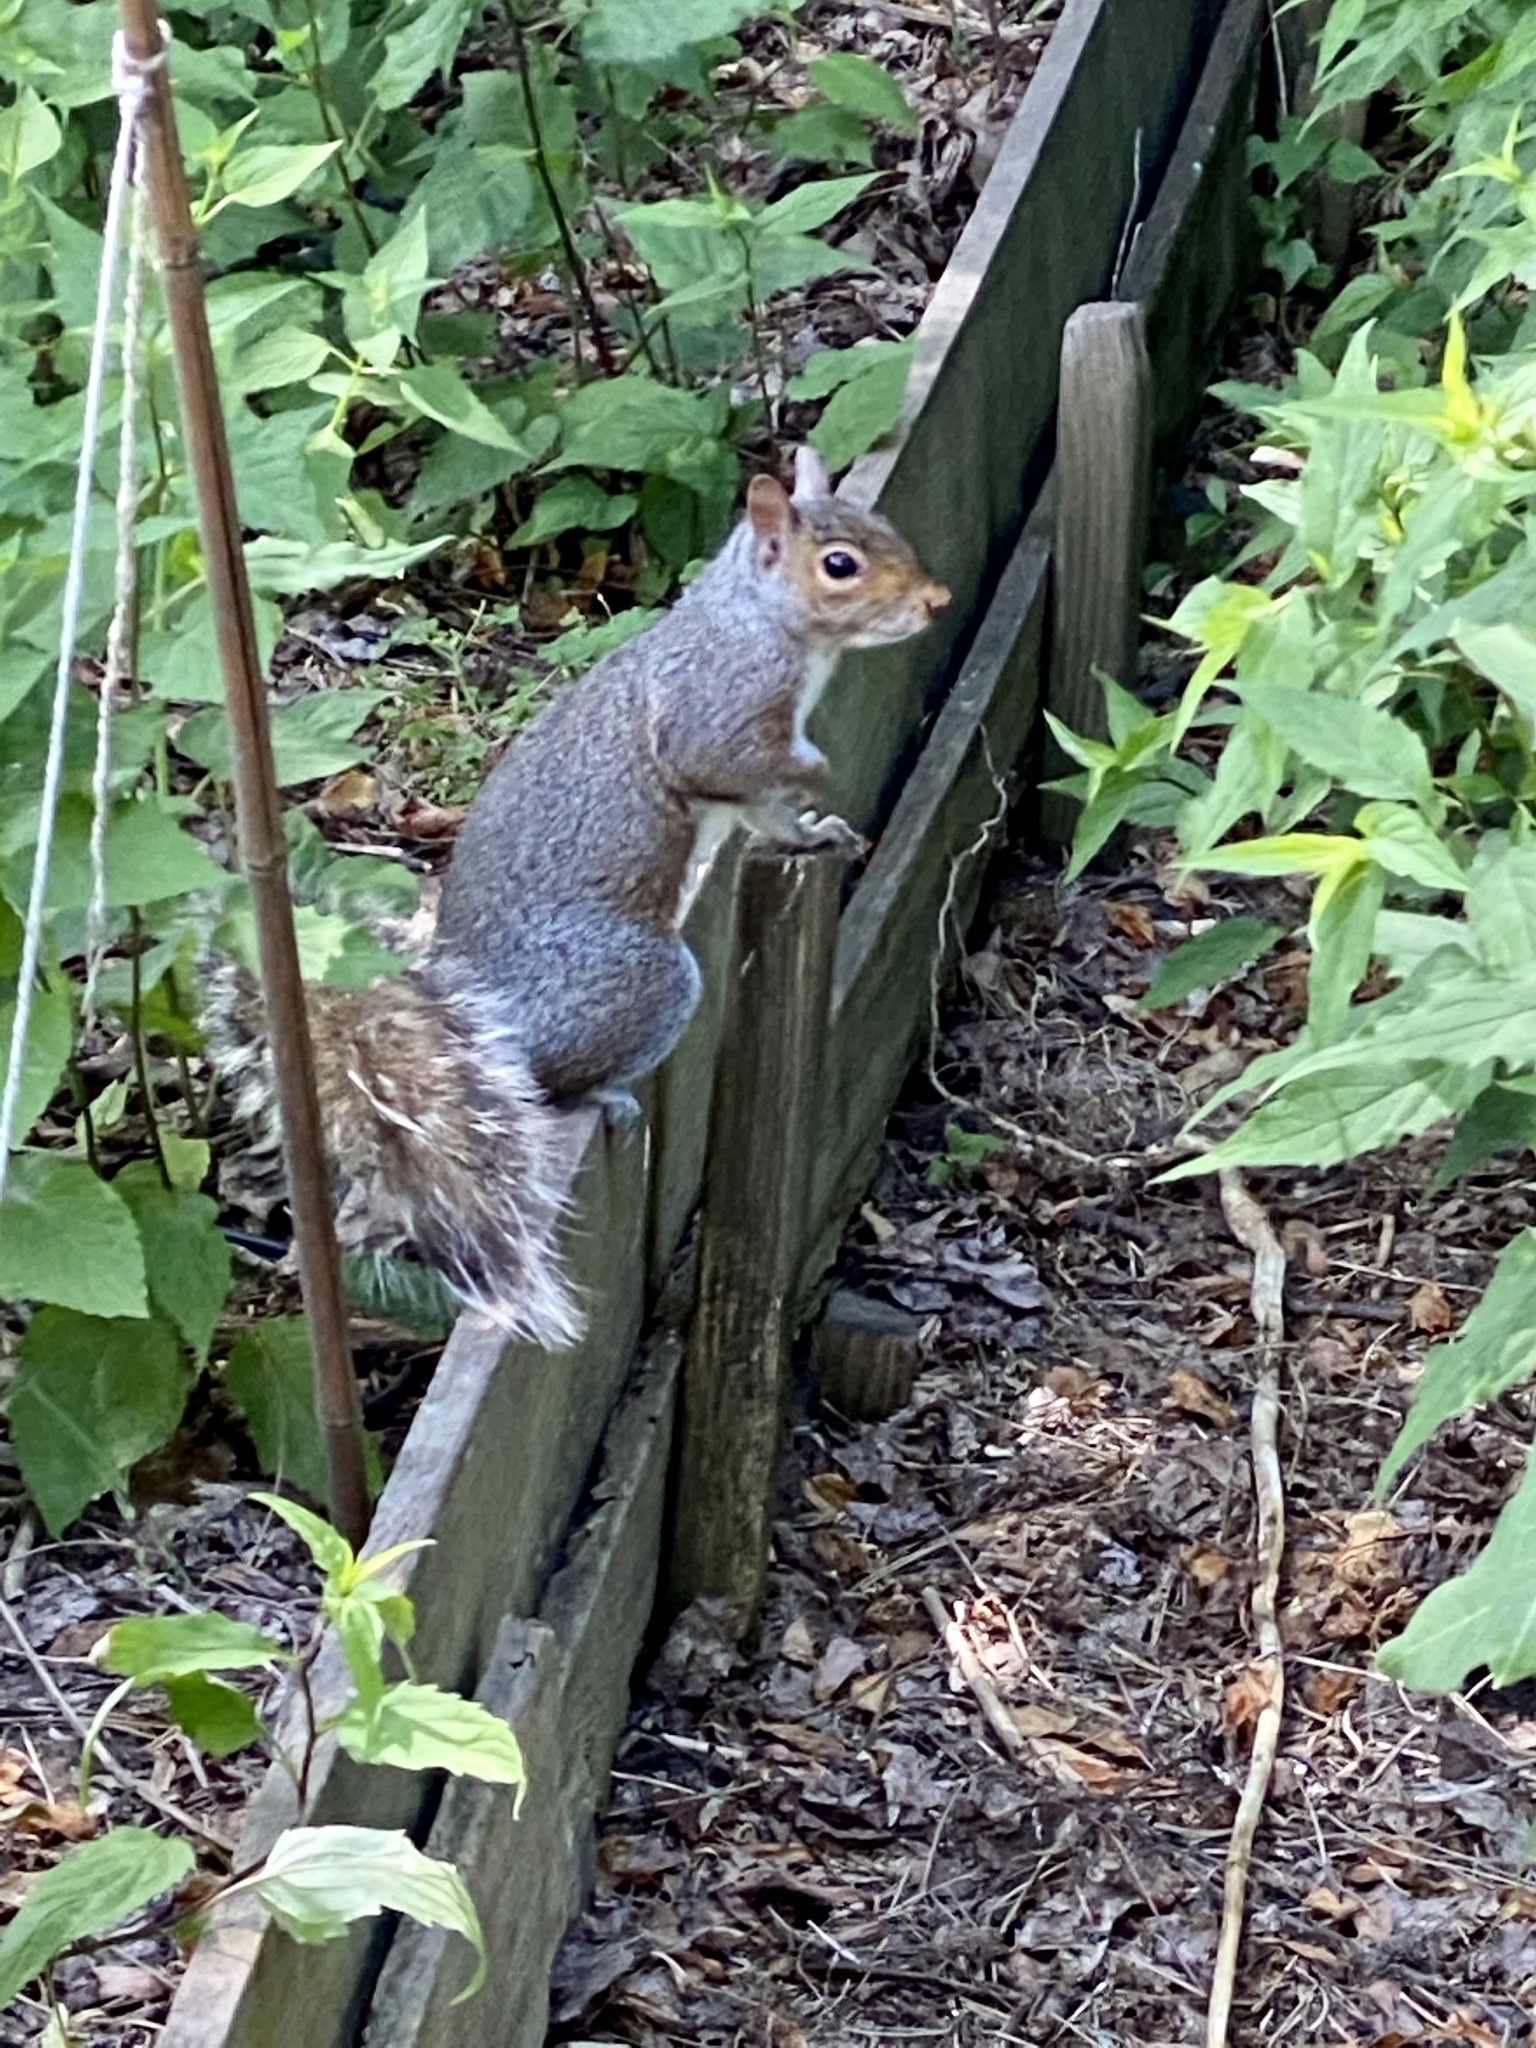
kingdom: Animalia
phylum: Chordata
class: Mammalia
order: Rodentia
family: Sciuridae
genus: Sciurus
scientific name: Sciurus carolinensis
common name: Eastern gray squirrel
